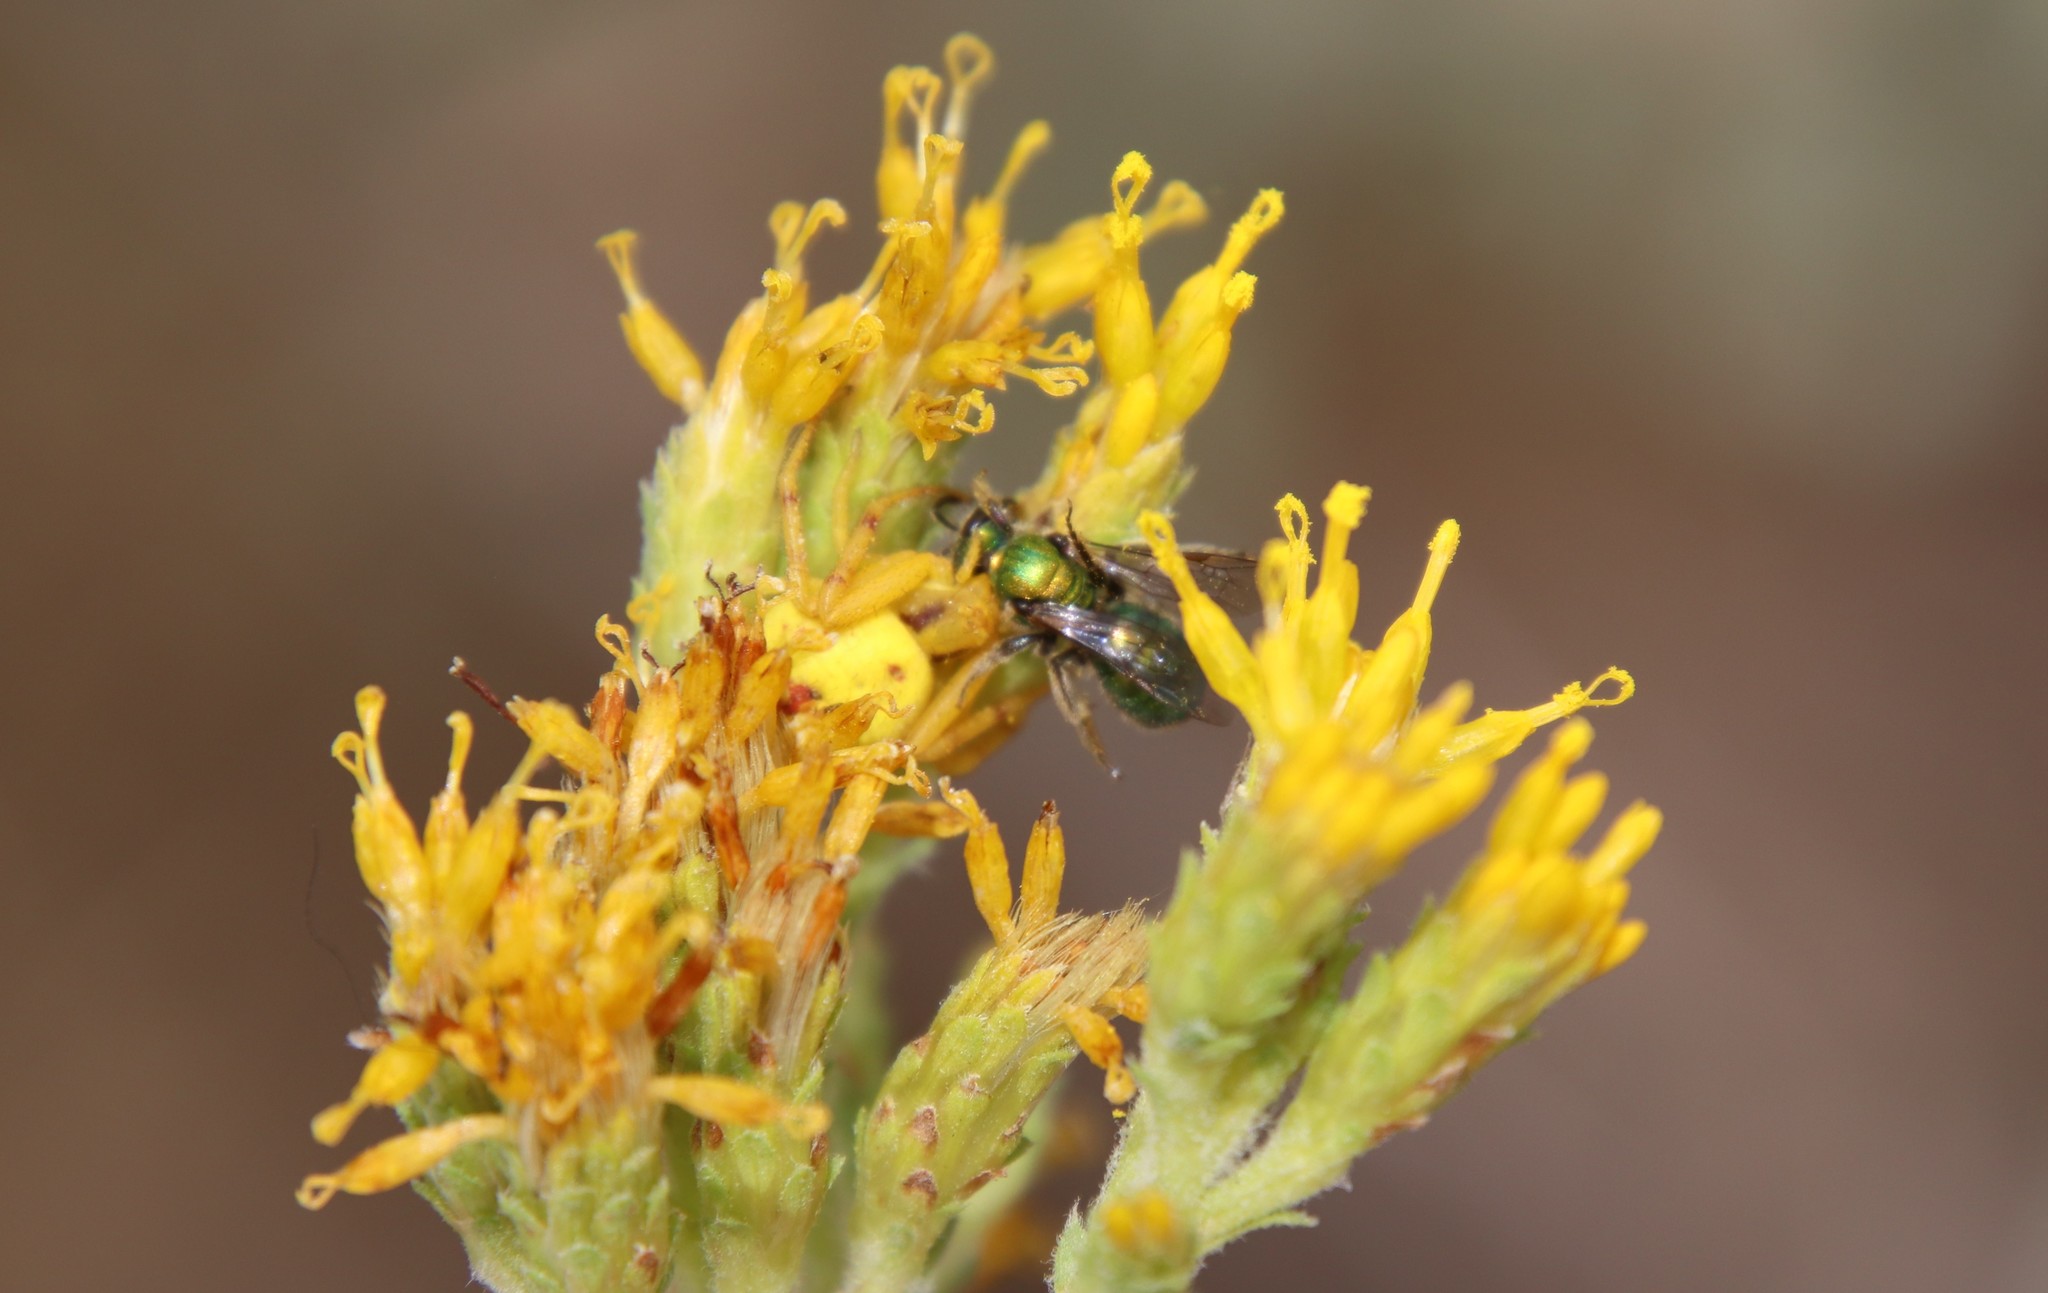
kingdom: Animalia
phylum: Arthropoda
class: Insecta
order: Hymenoptera
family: Halictidae
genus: Augochlorella
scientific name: Augochlorella pomoniella
